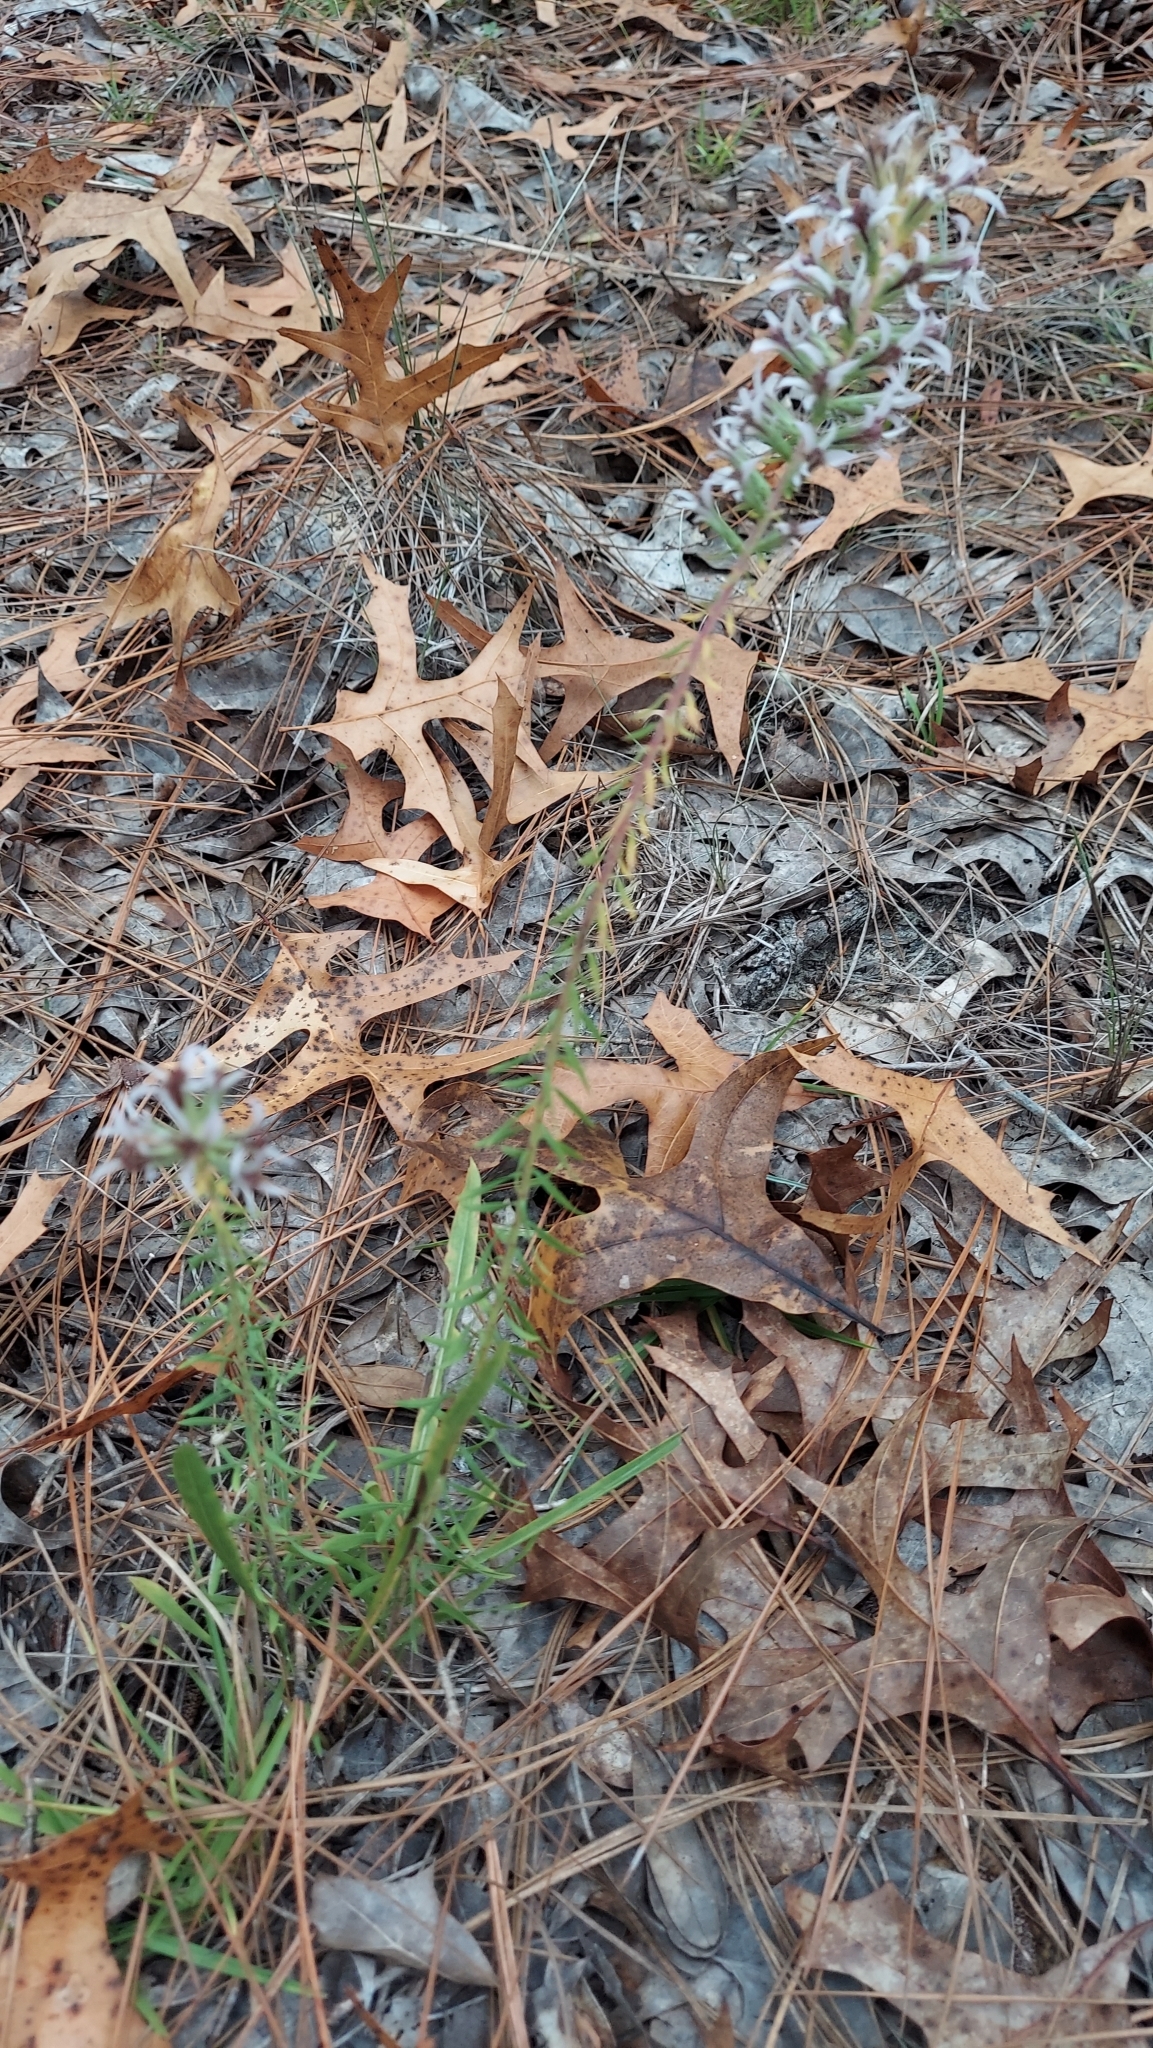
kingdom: Plantae
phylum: Tracheophyta
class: Magnoliopsida
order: Asterales
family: Asteraceae
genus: Liatris
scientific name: Liatris elegans
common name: Pinkscale gayfeather
